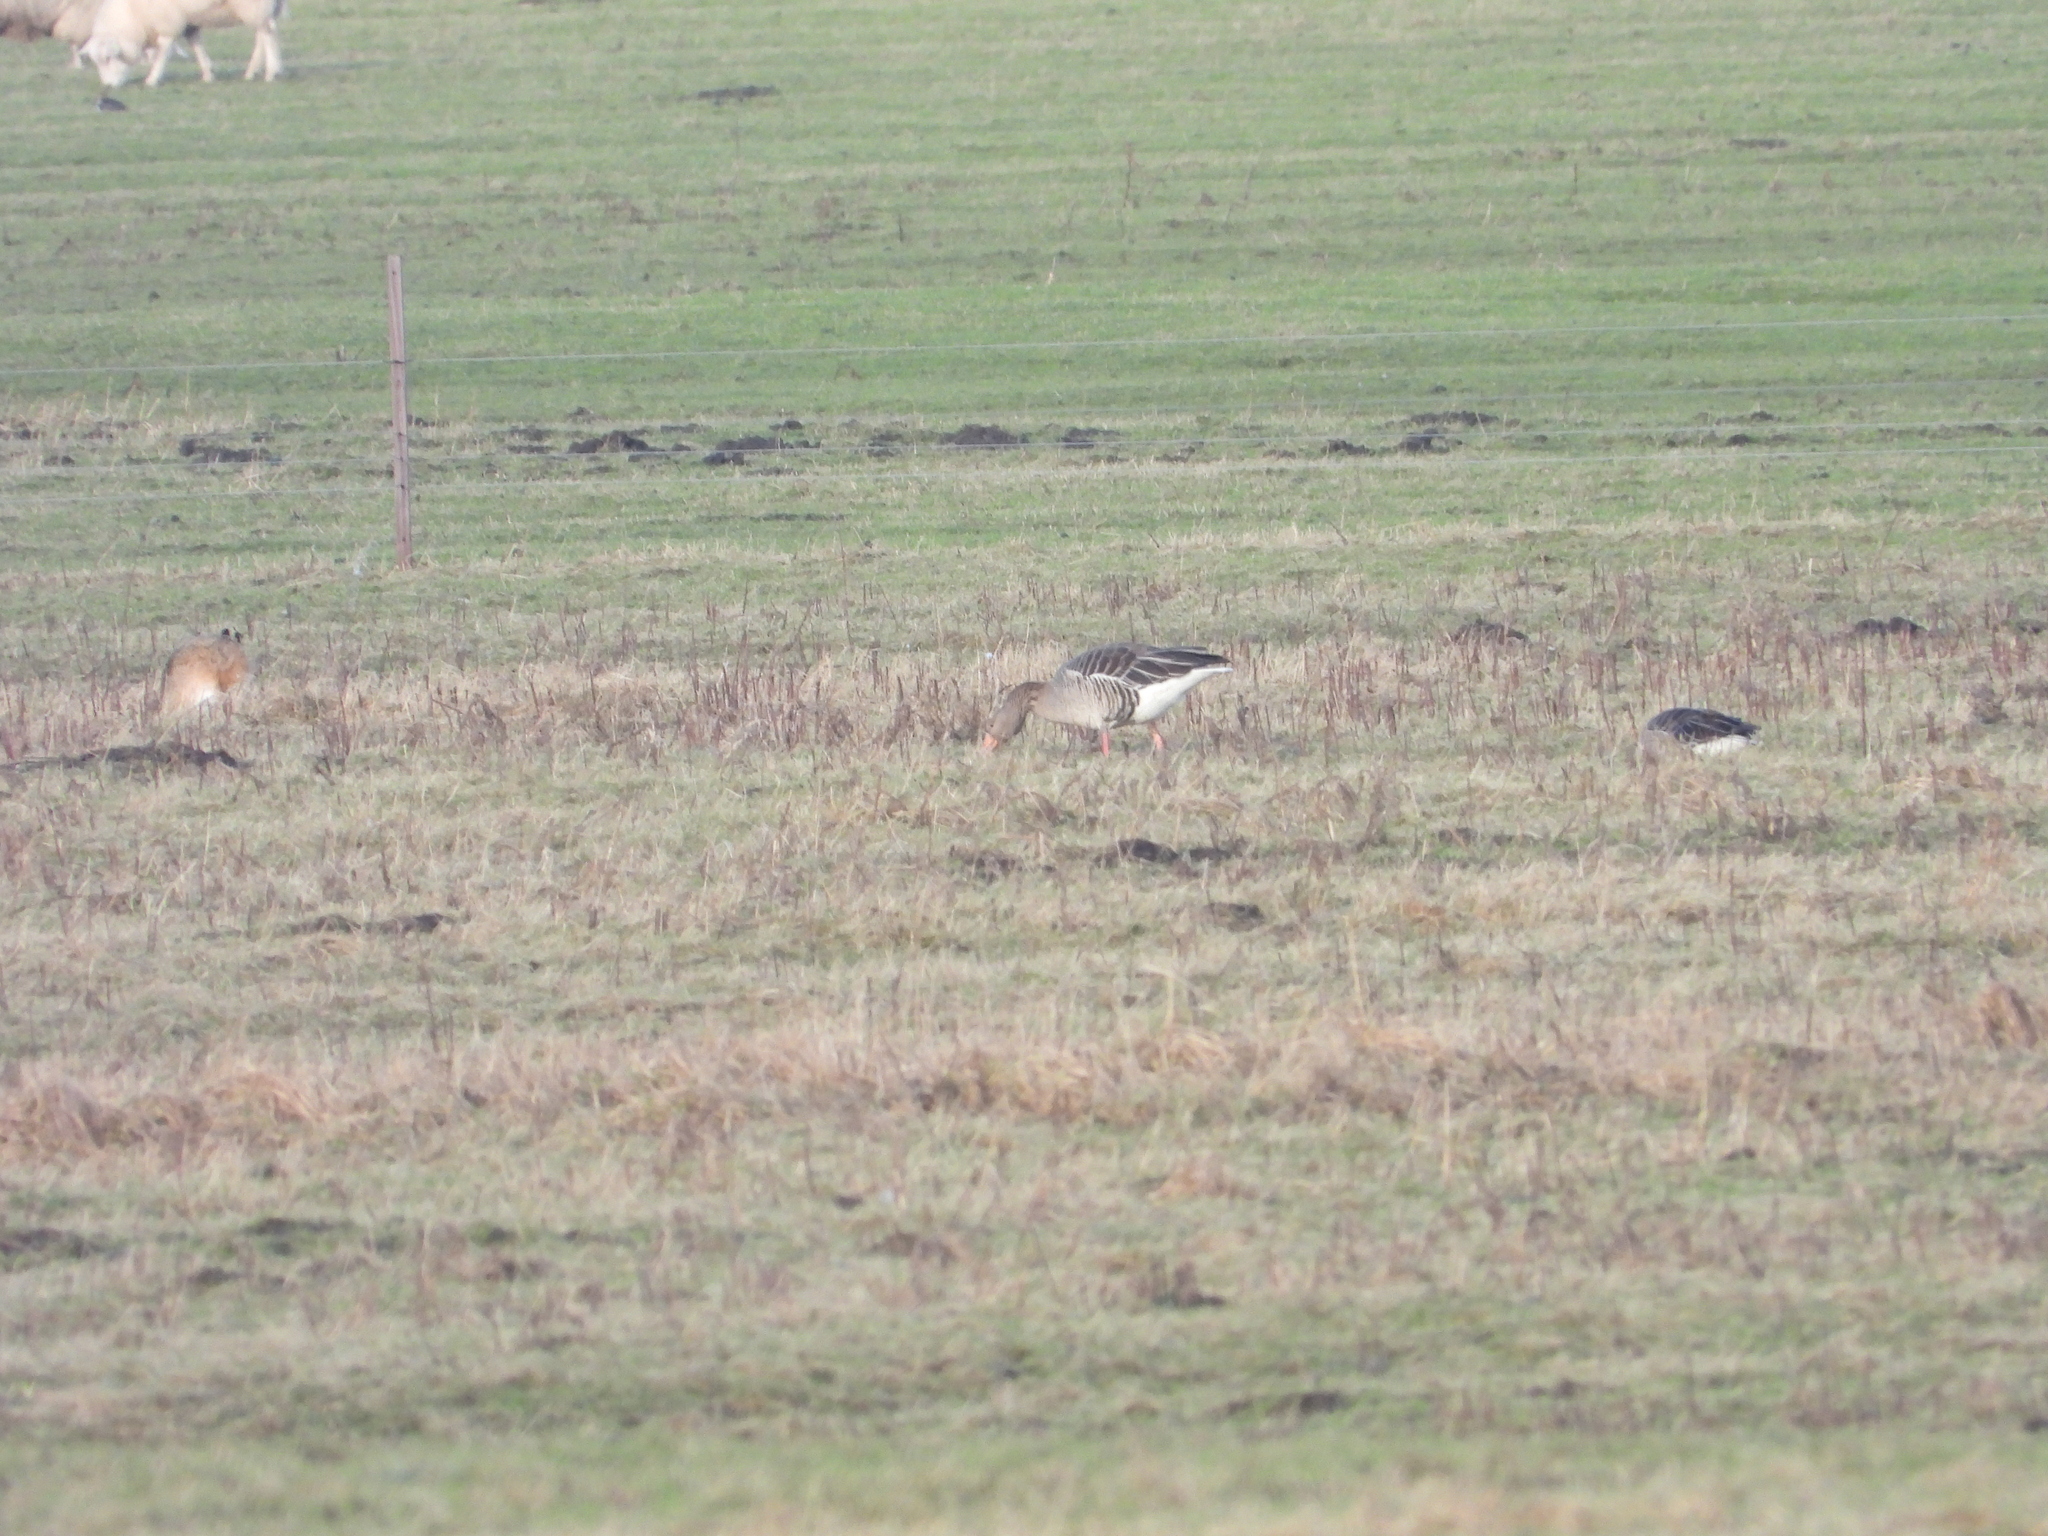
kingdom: Animalia
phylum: Chordata
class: Aves
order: Anseriformes
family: Anatidae
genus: Anser
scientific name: Anser anser
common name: Greylag goose
